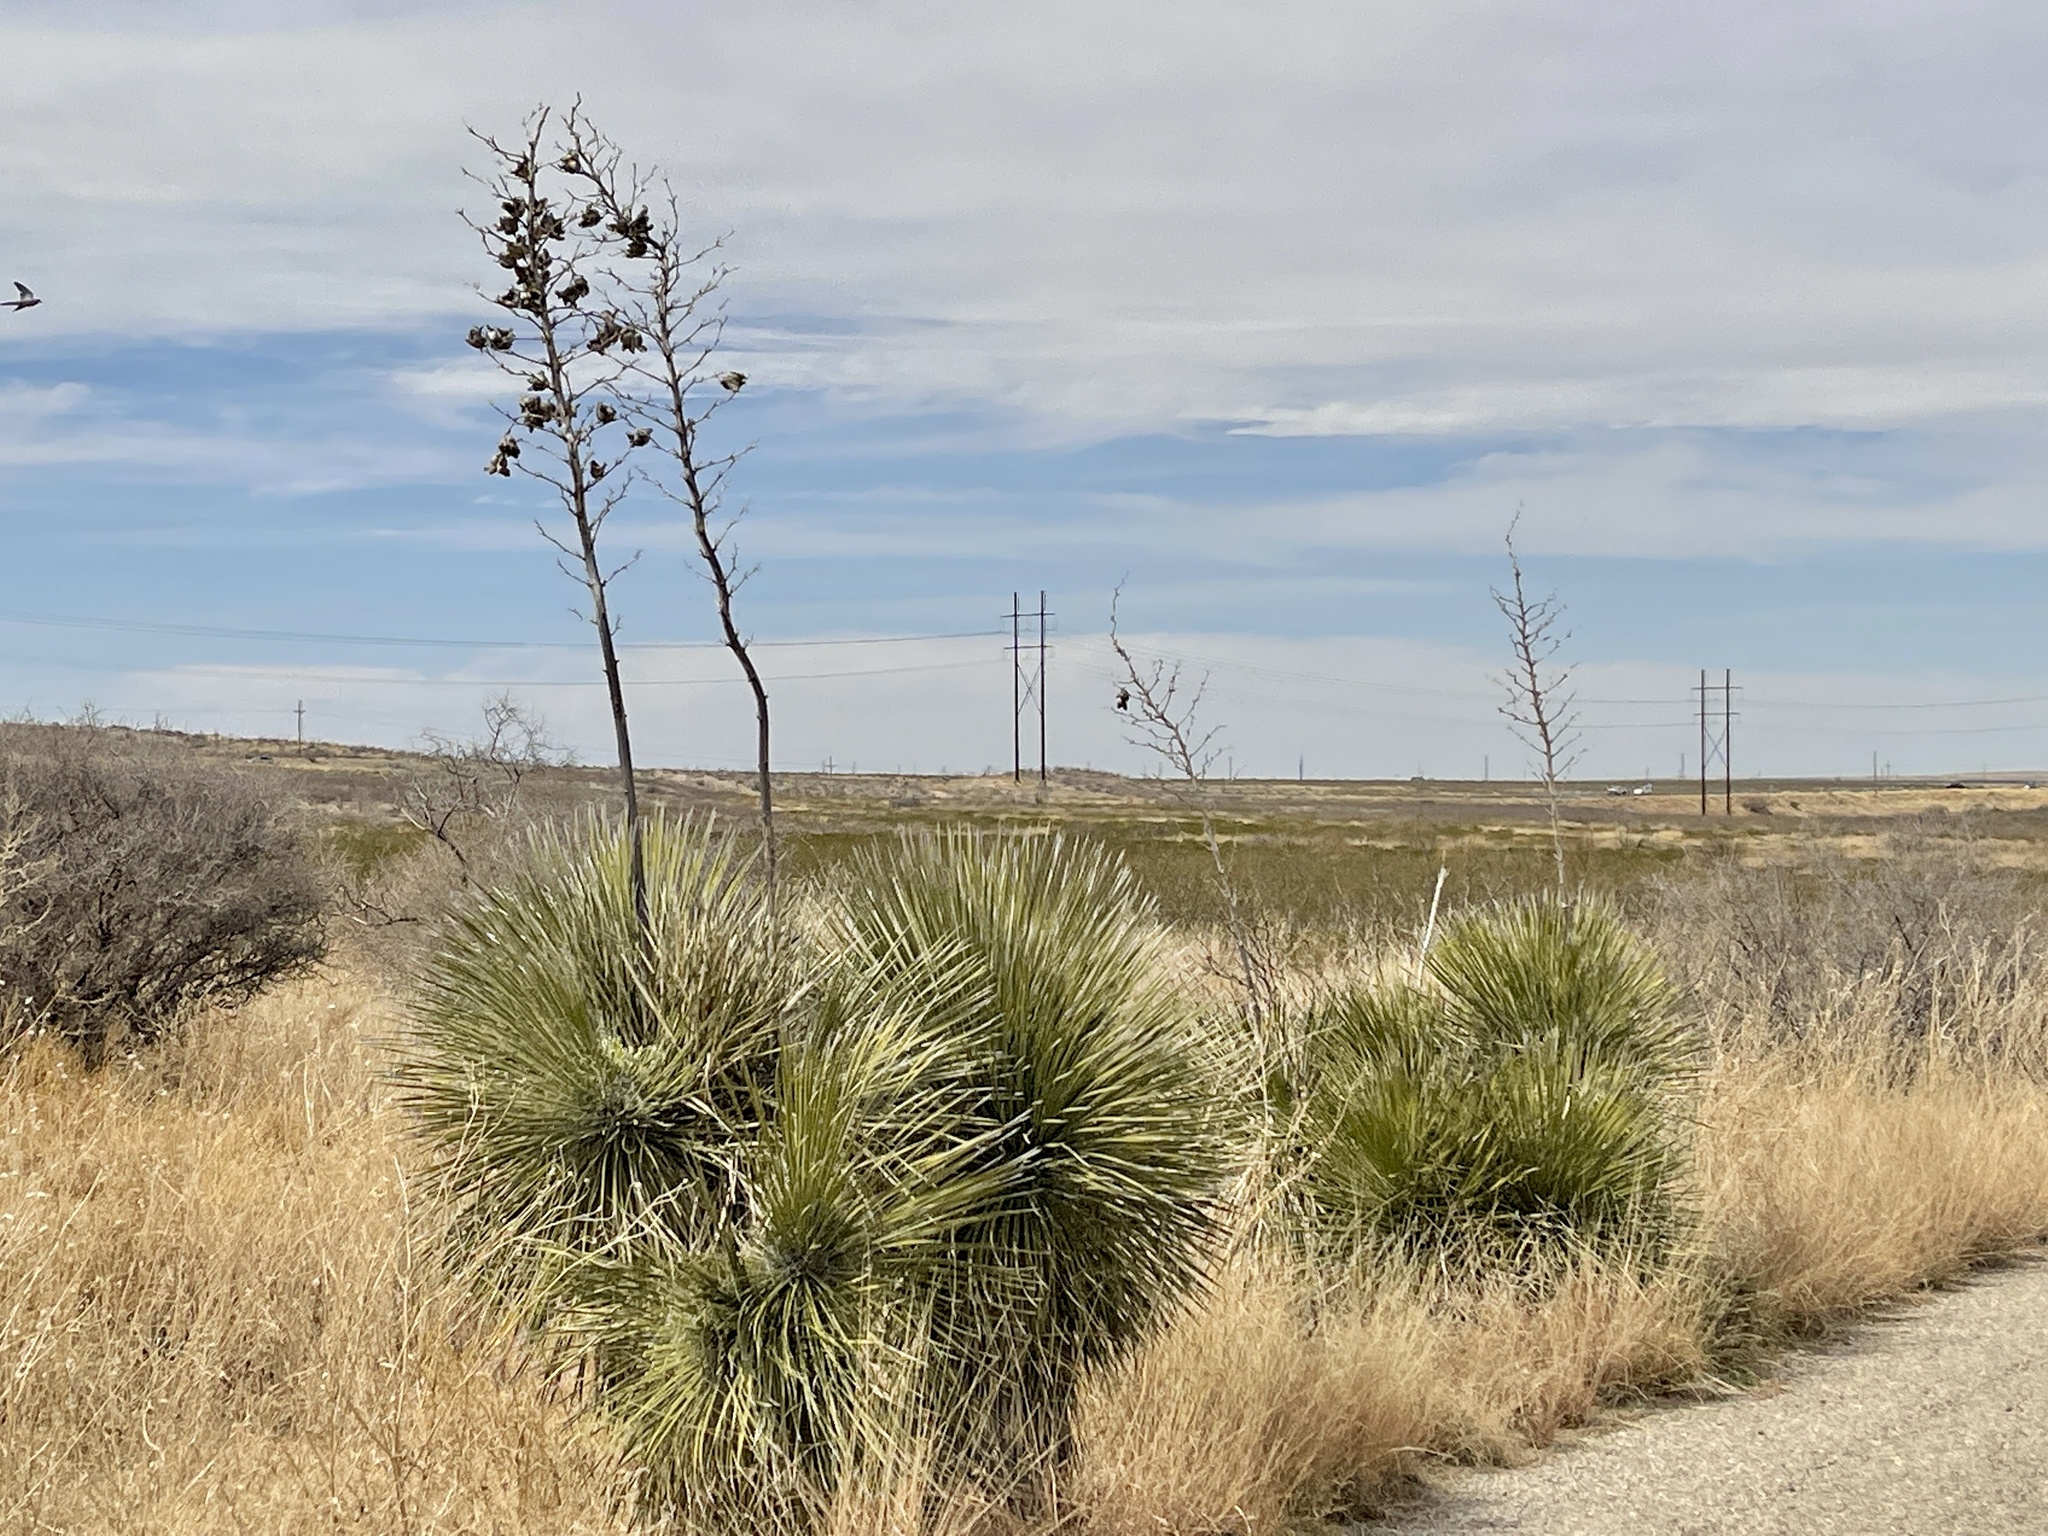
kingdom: Plantae
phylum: Tracheophyta
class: Liliopsida
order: Asparagales
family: Asparagaceae
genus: Yucca
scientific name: Yucca elata
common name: Palmella
